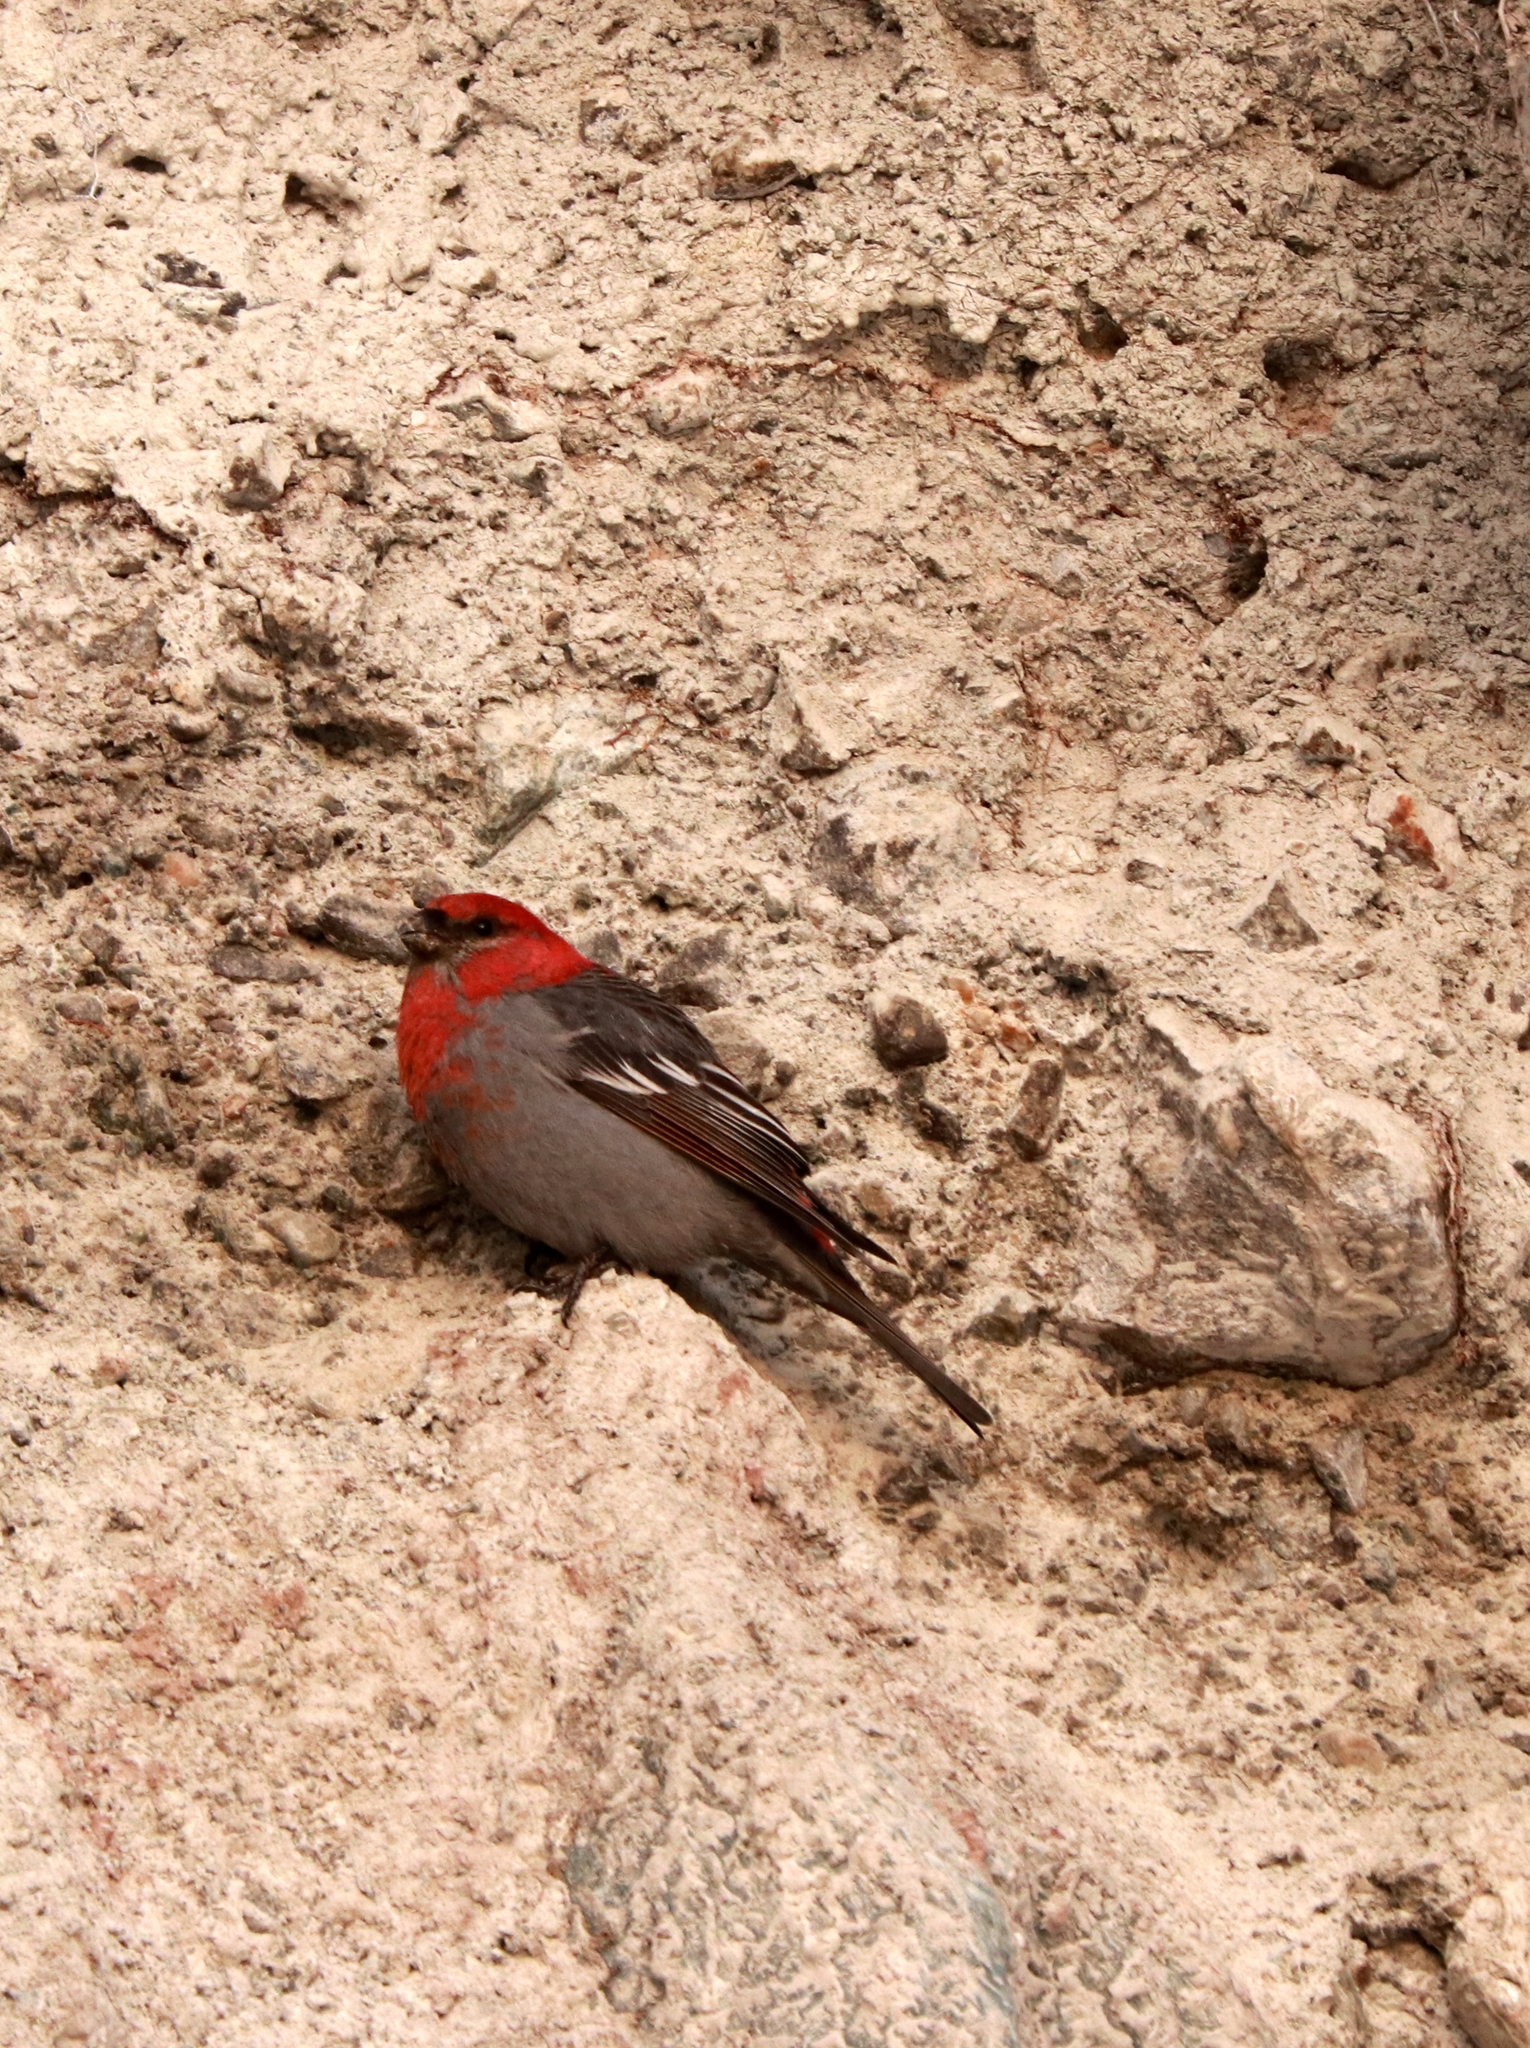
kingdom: Animalia
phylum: Chordata
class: Aves
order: Passeriformes
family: Fringillidae
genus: Pinicola
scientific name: Pinicola enucleator
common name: Pine grosbeak
